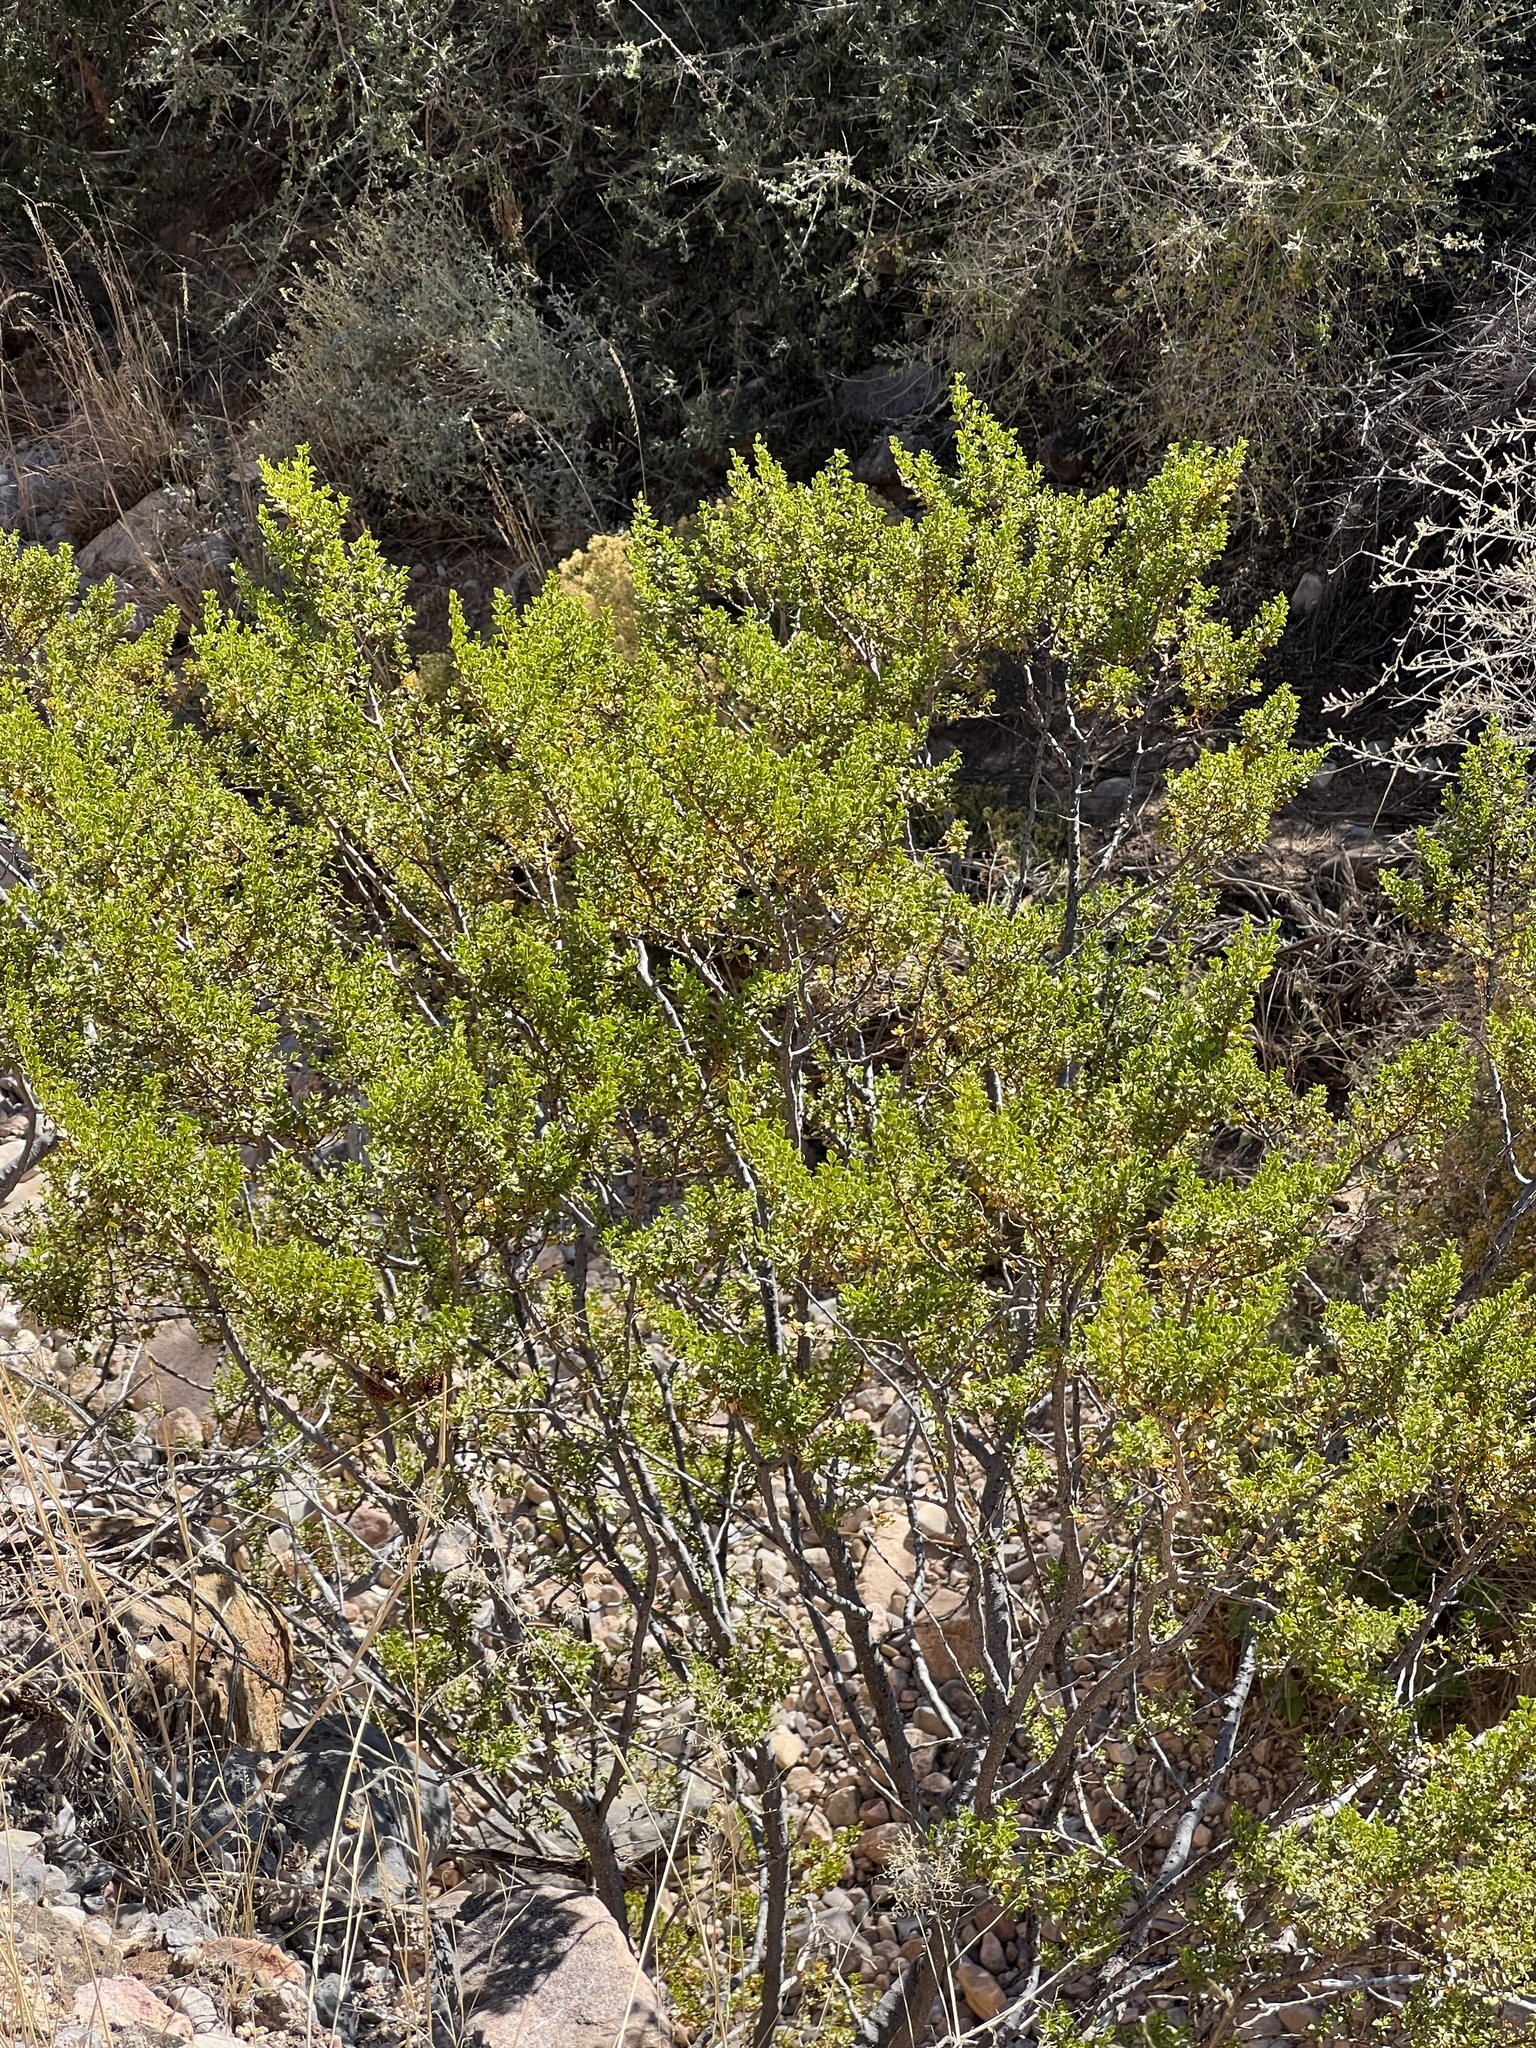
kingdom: Plantae
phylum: Tracheophyta
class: Magnoliopsida
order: Zygophyllales
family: Zygophyllaceae
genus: Larrea
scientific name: Larrea tridentata
